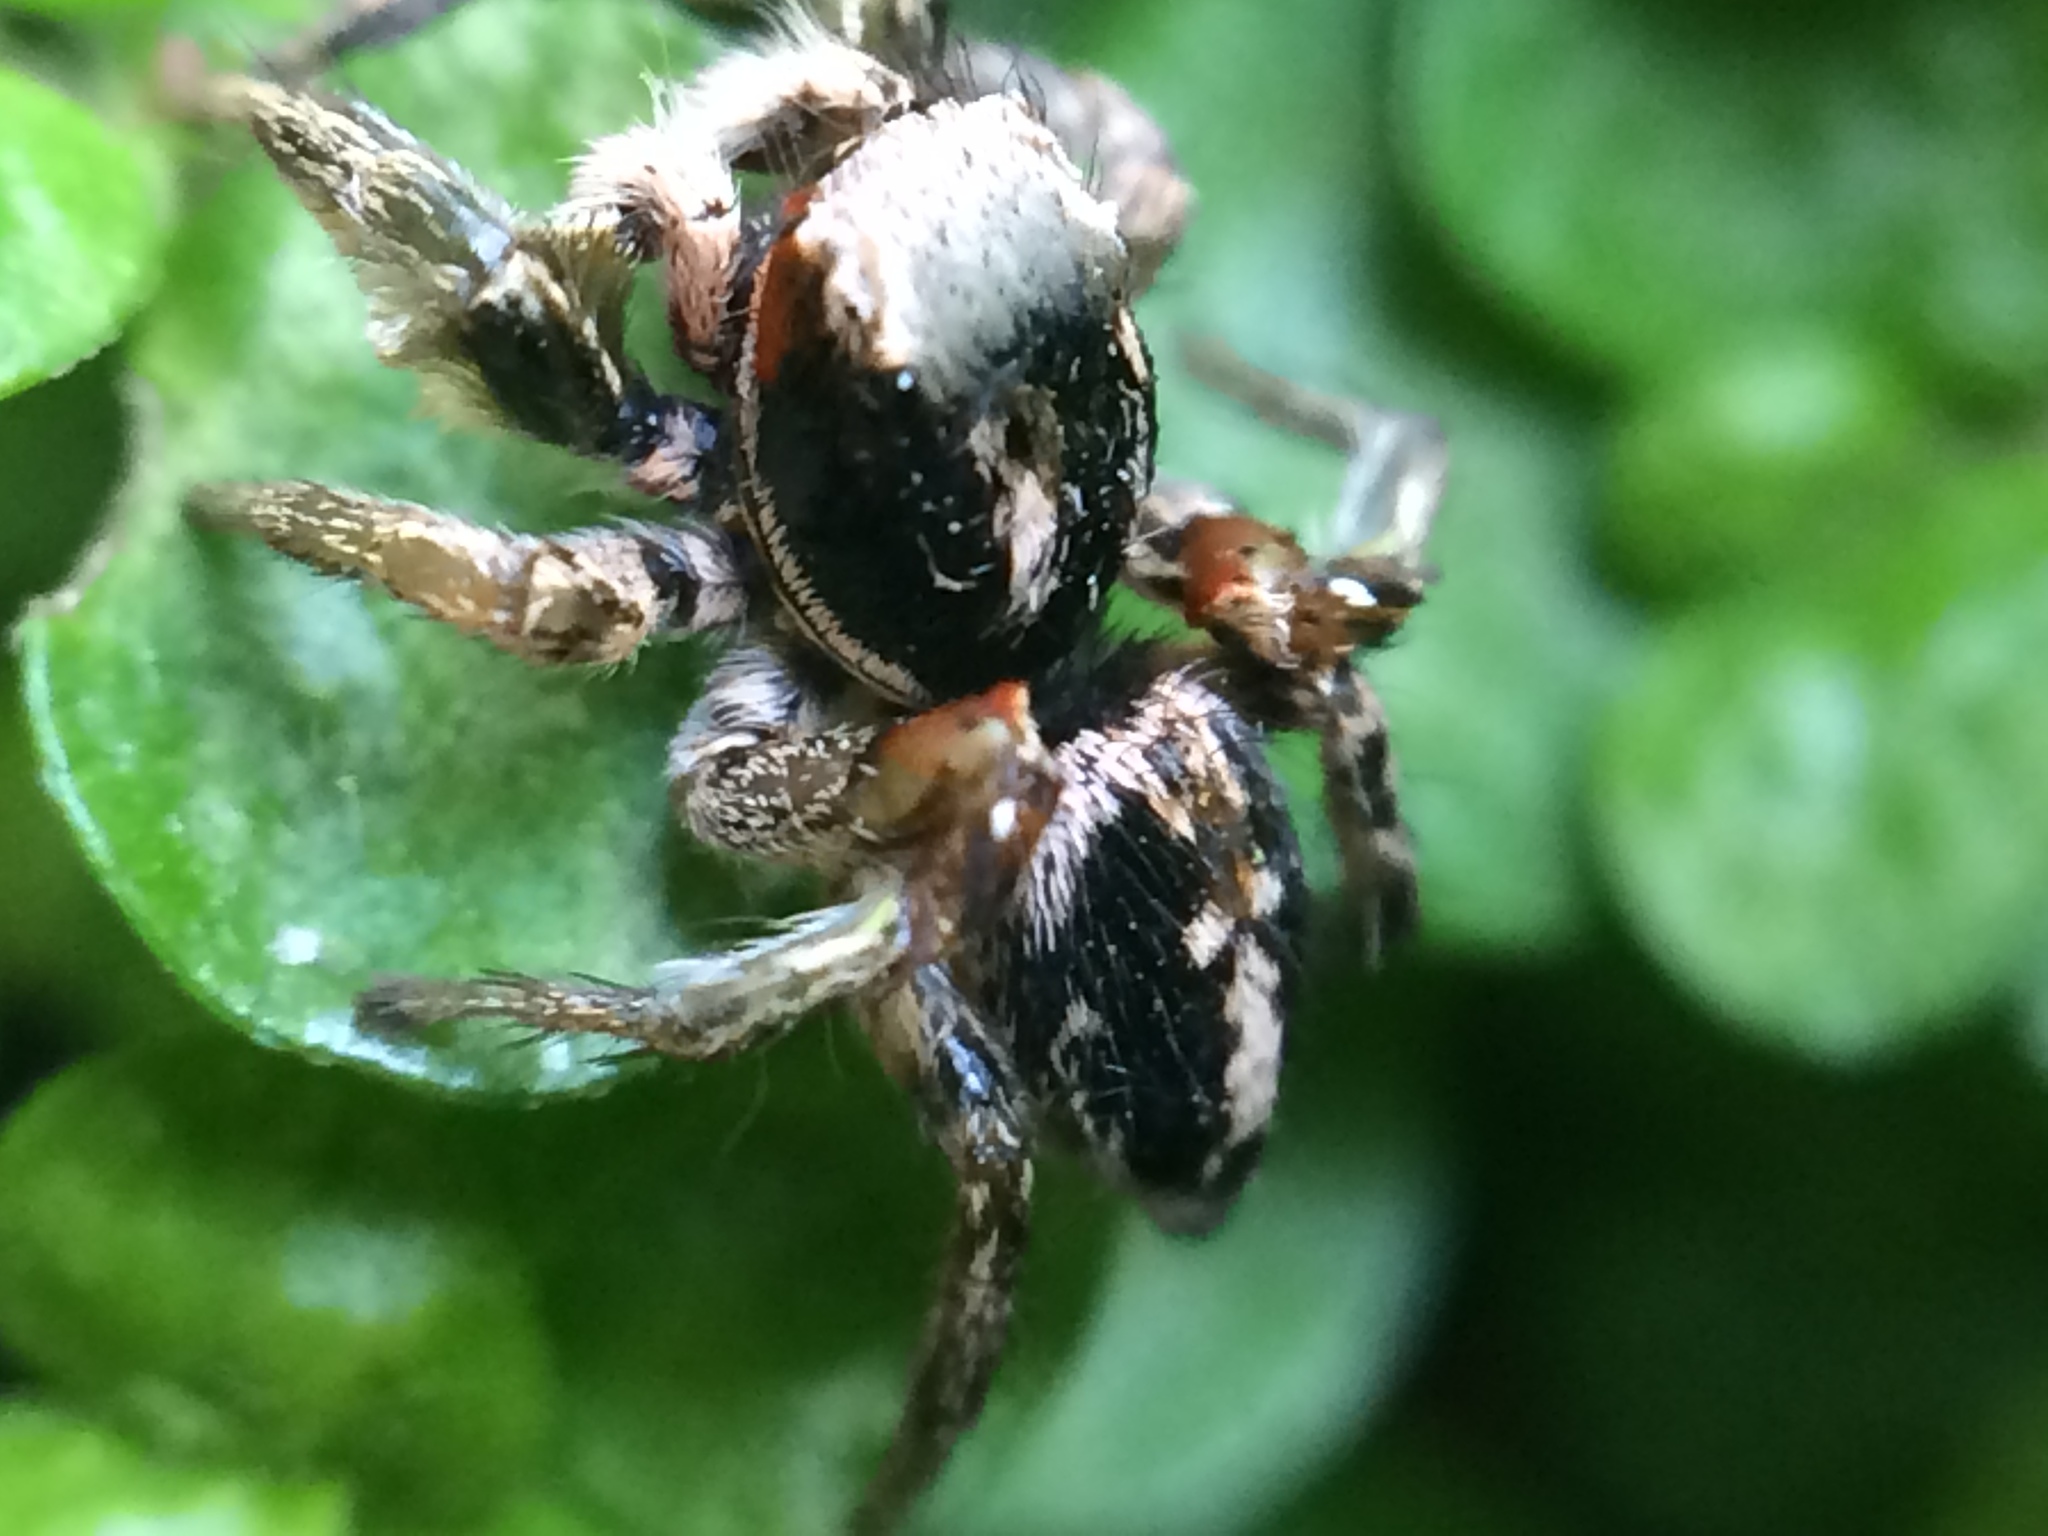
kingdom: Animalia
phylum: Arthropoda
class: Arachnida
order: Araneae
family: Salticidae
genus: Habronattus
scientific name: Habronattus pyrrithrix
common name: Jumping spider
